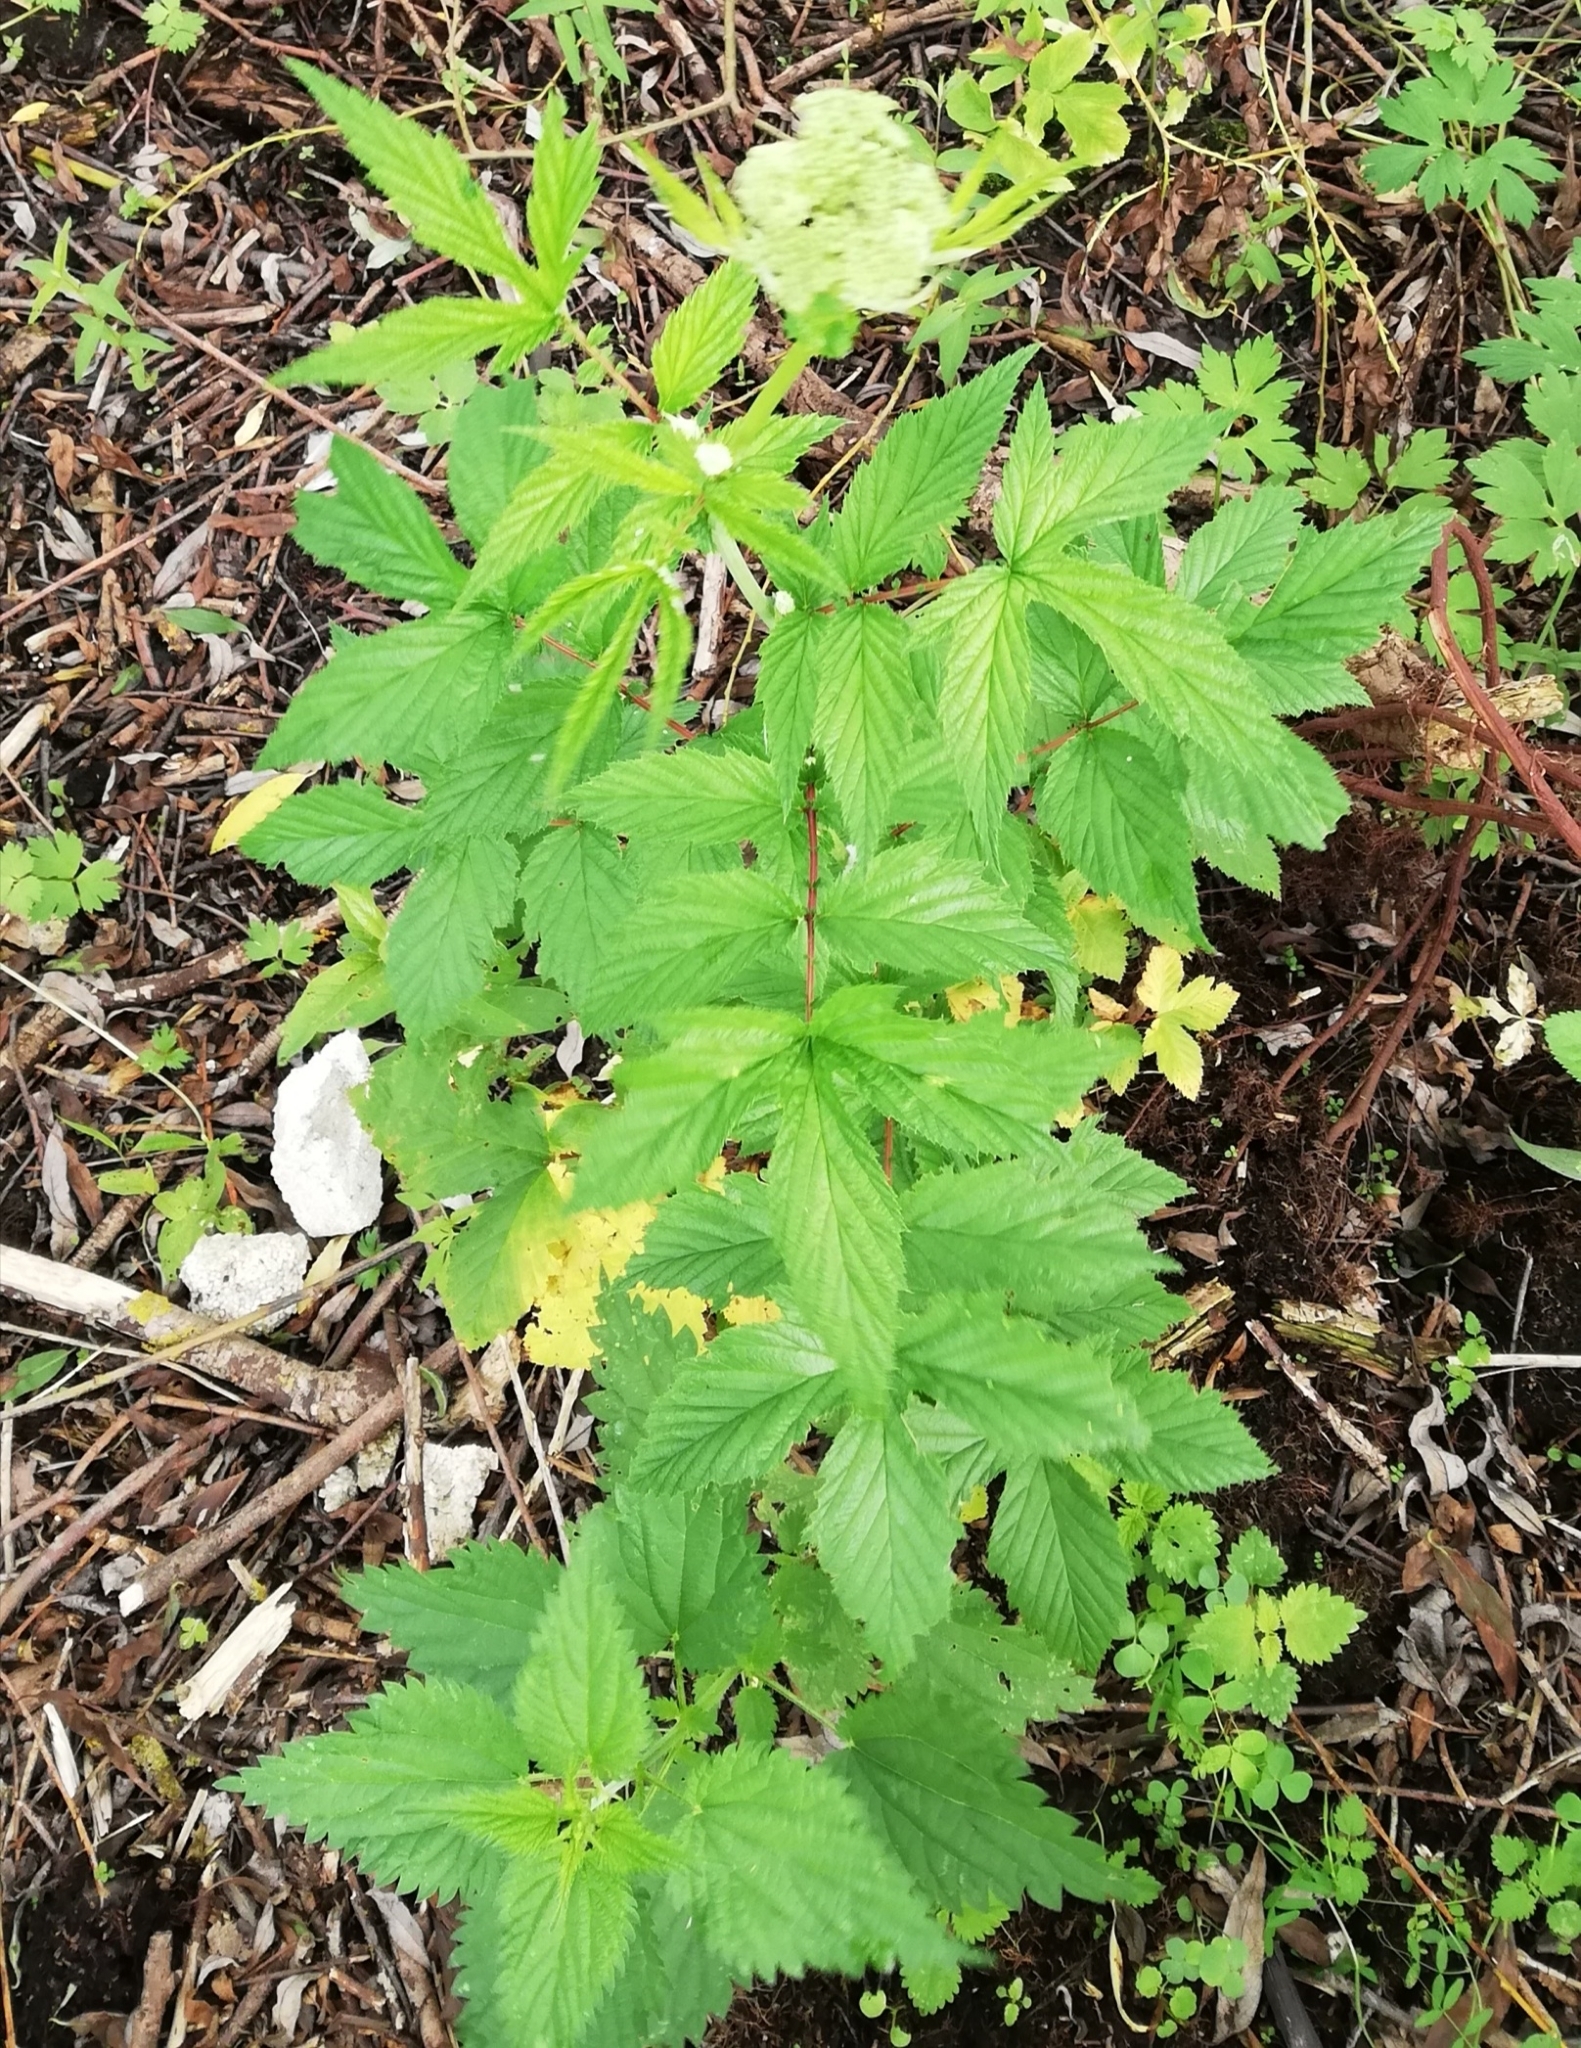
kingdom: Plantae
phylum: Tracheophyta
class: Magnoliopsida
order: Rosales
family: Rosaceae
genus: Filipendula
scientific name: Filipendula ulmaria
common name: Meadowsweet
